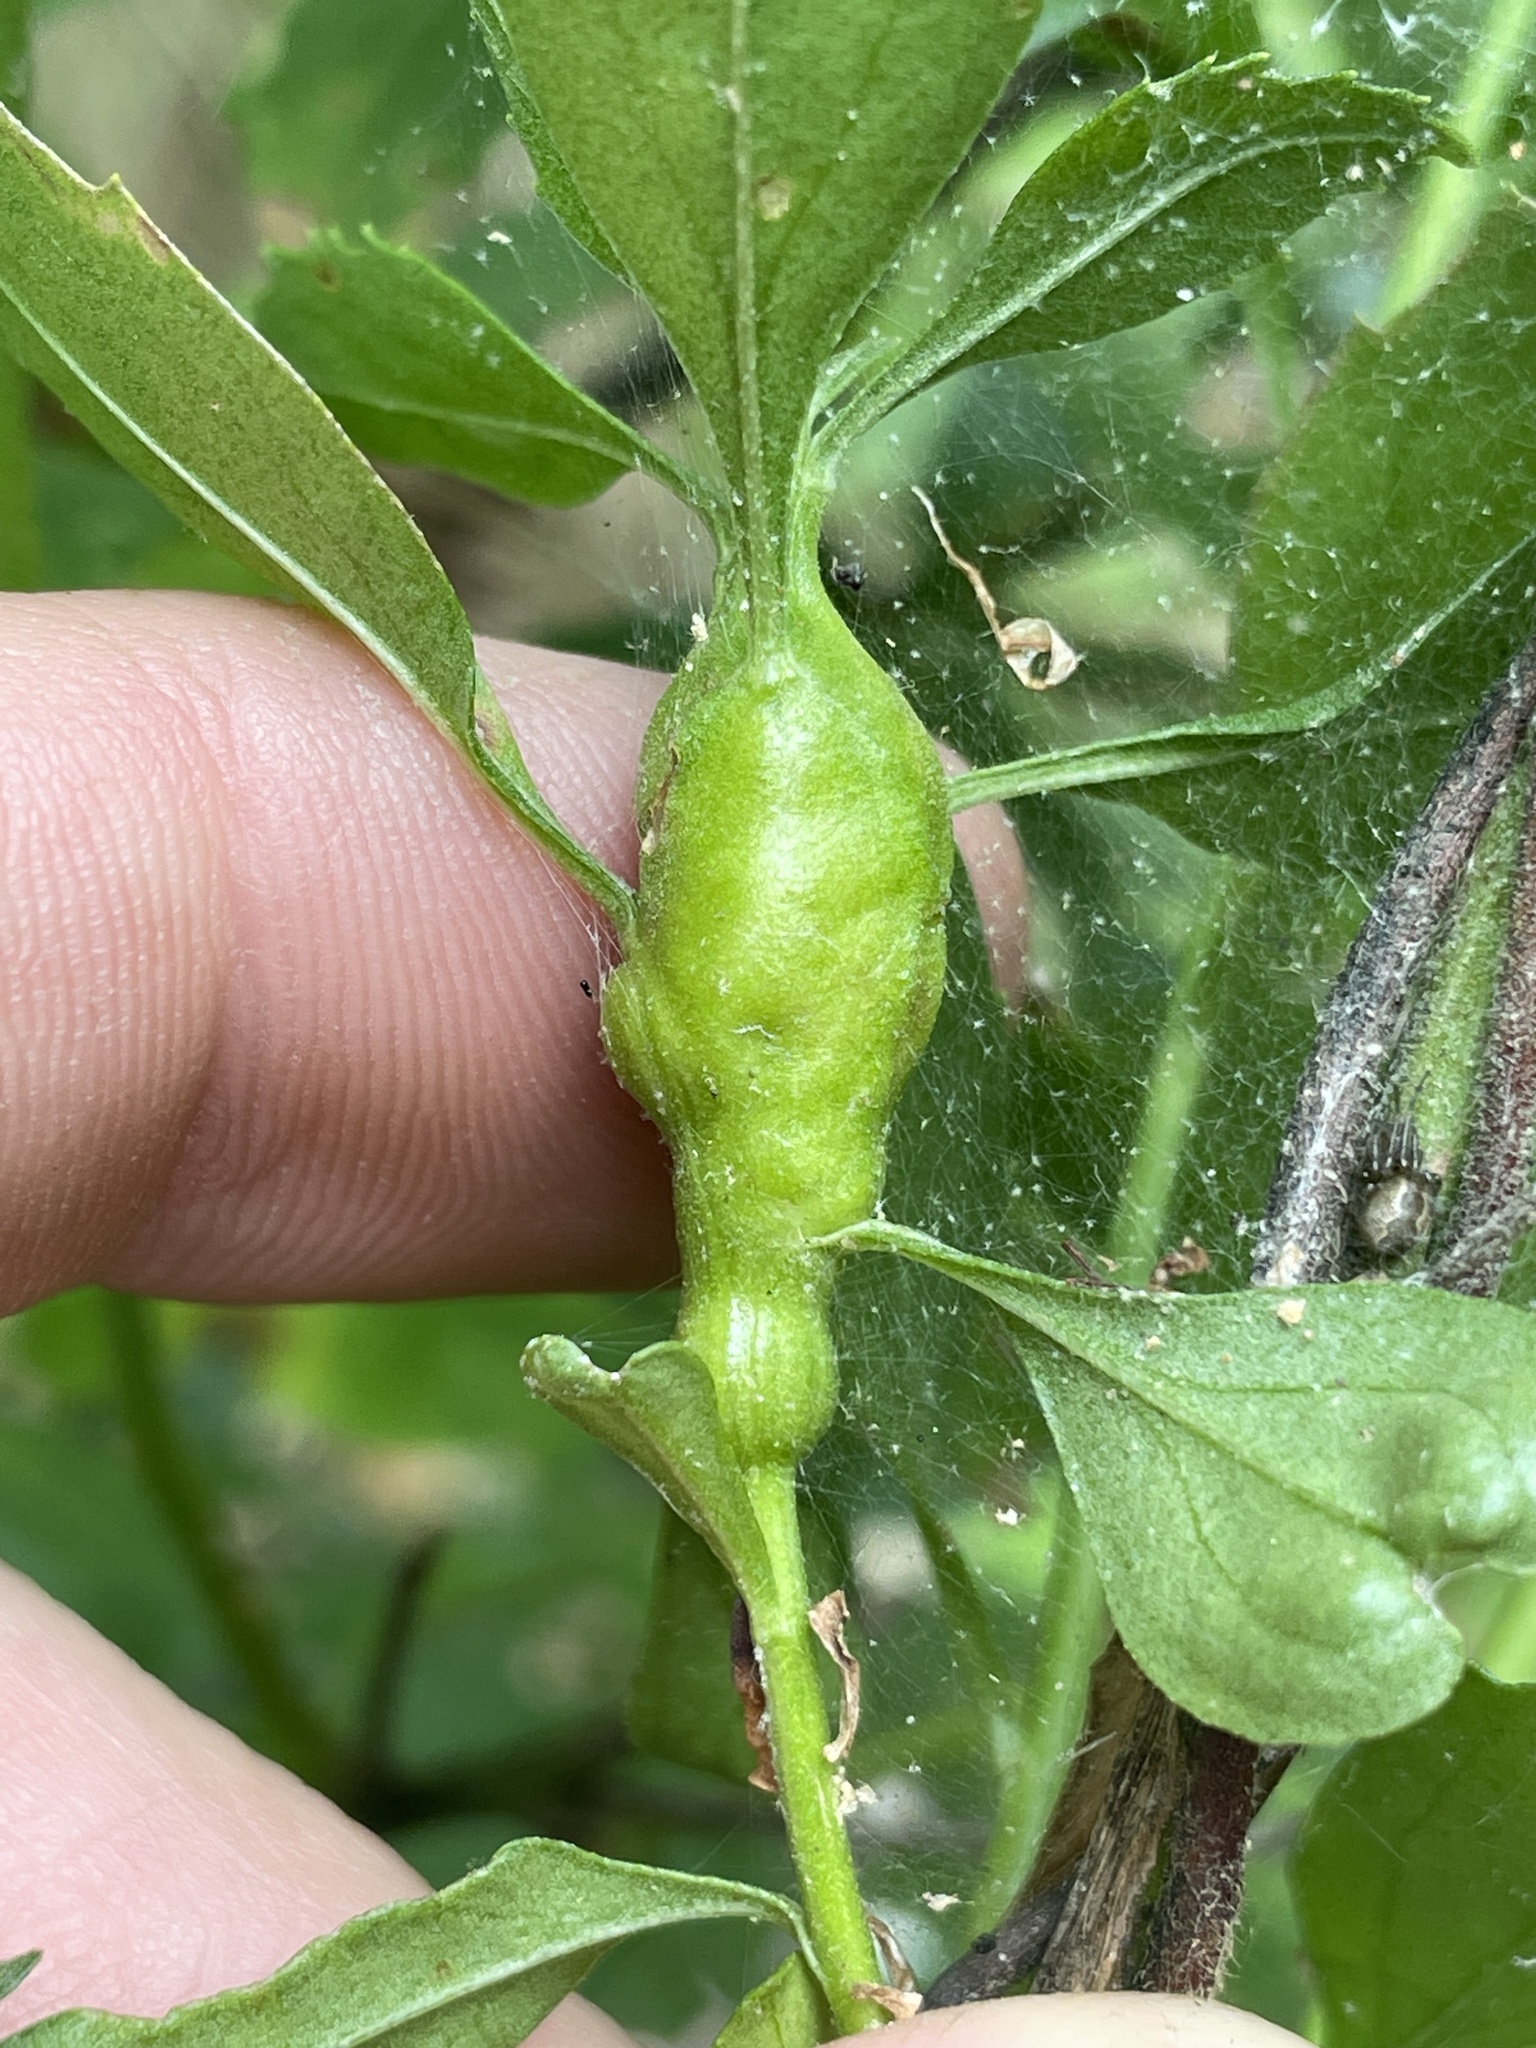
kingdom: Animalia
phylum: Arthropoda
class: Insecta
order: Diptera
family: Cecidomyiidae
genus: Neolasioptera
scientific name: Neolasioptera lathami
